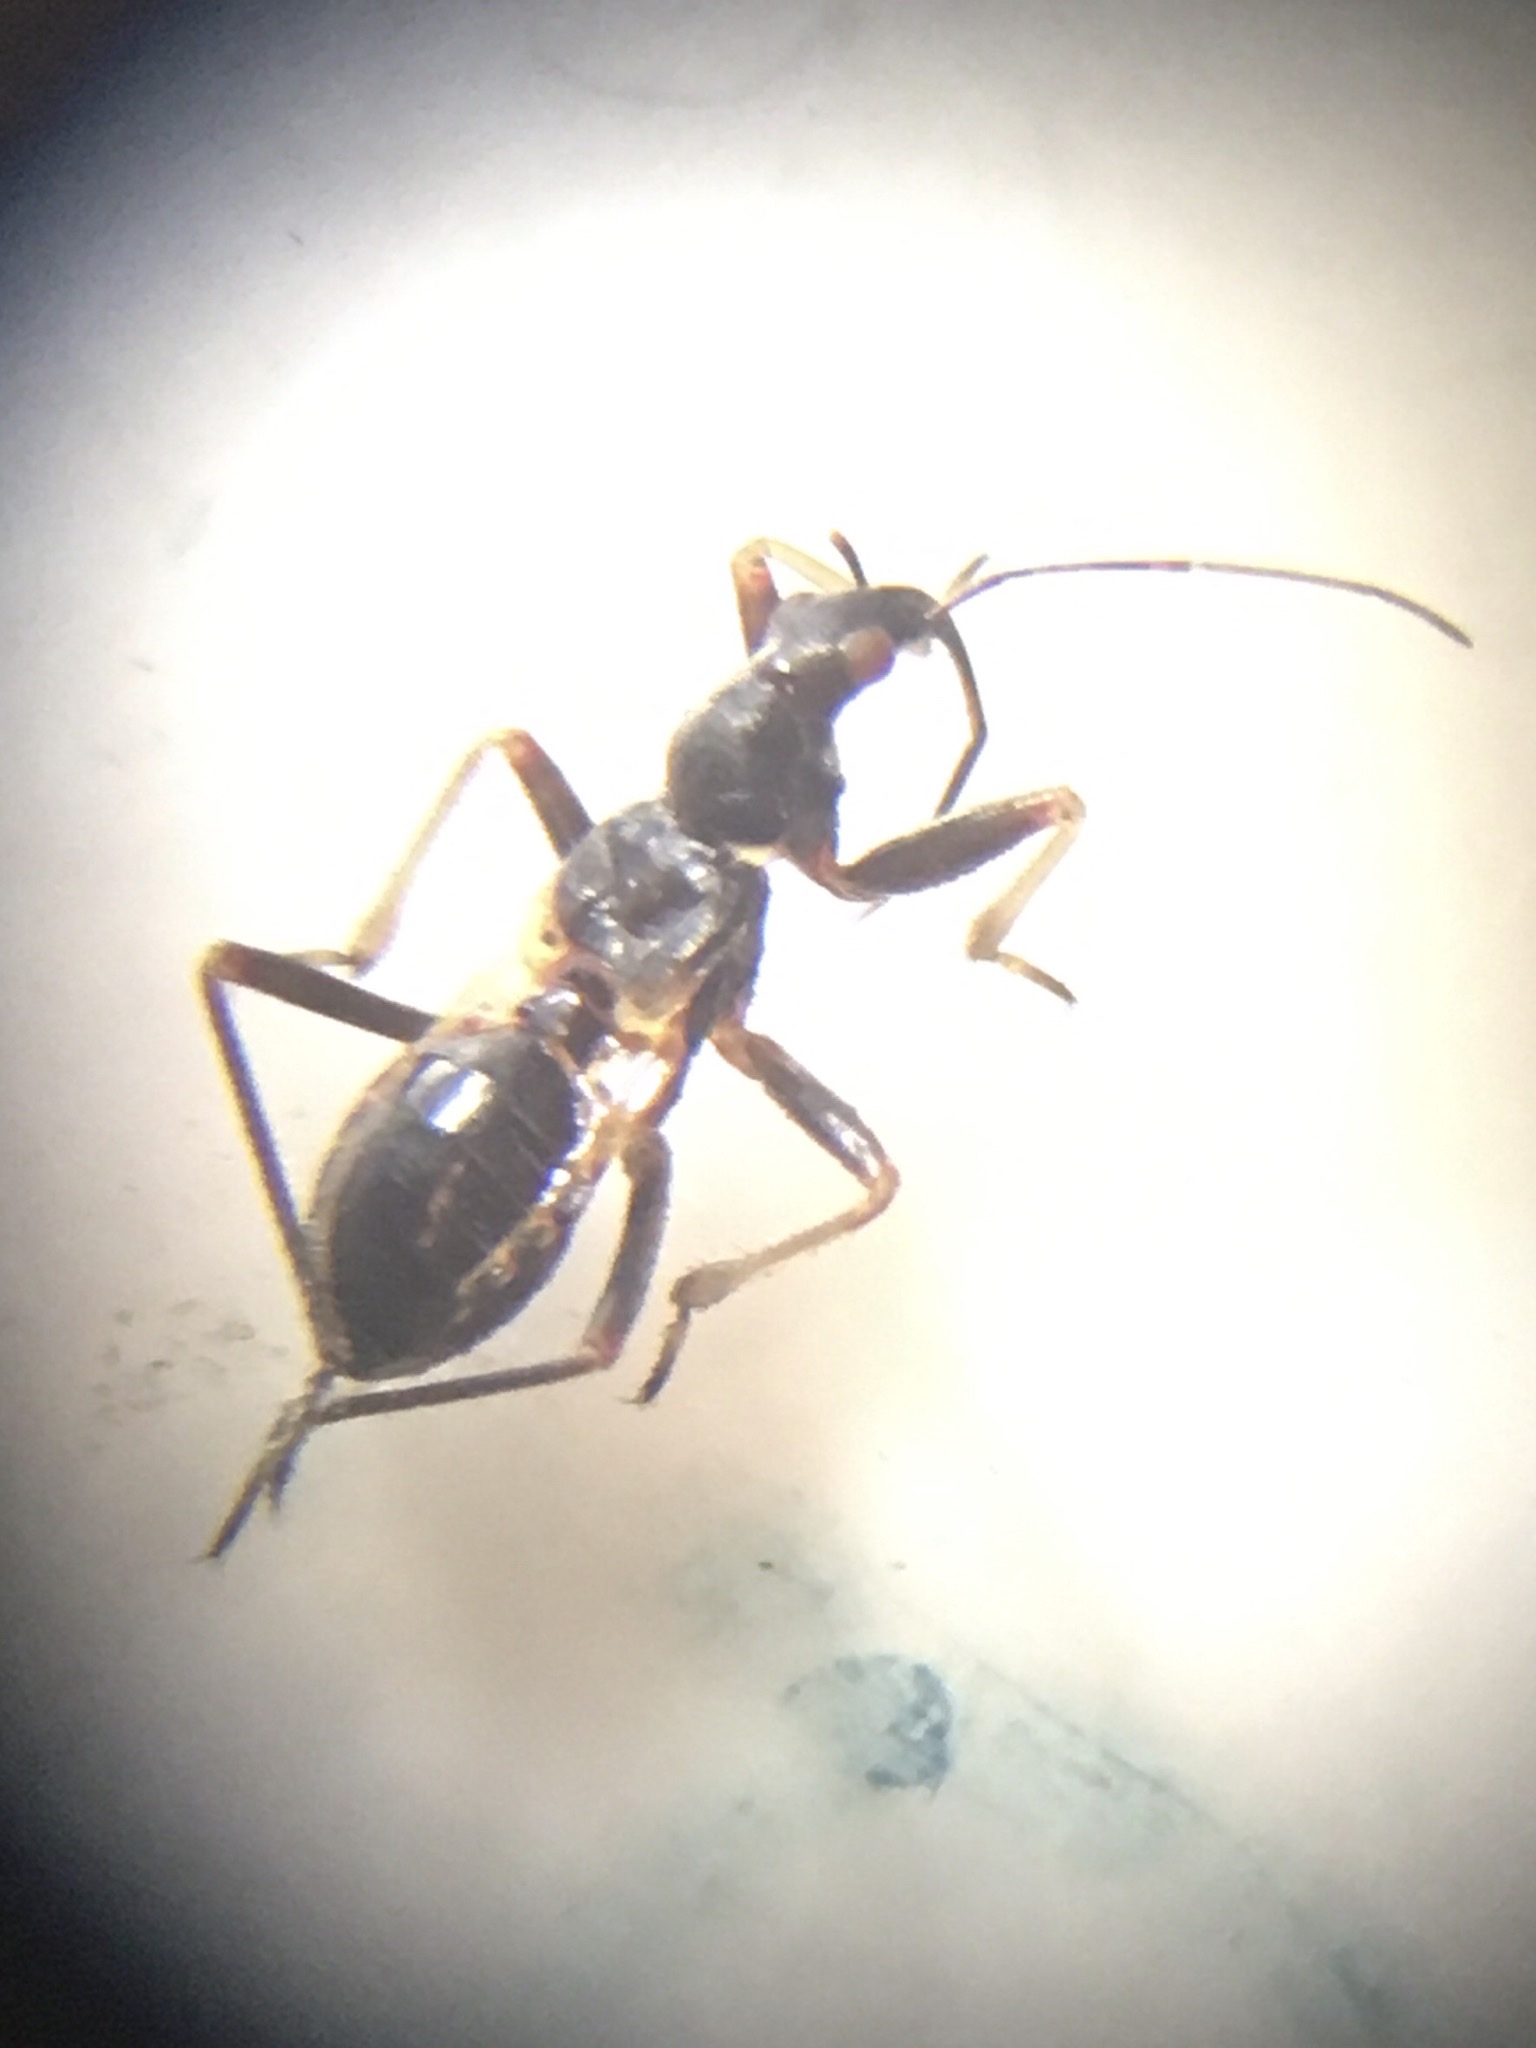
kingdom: Animalia
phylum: Arthropoda
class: Insecta
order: Hemiptera
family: Nabidae
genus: Himacerus
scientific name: Himacerus mirmicoides
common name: Ant damsel bug
